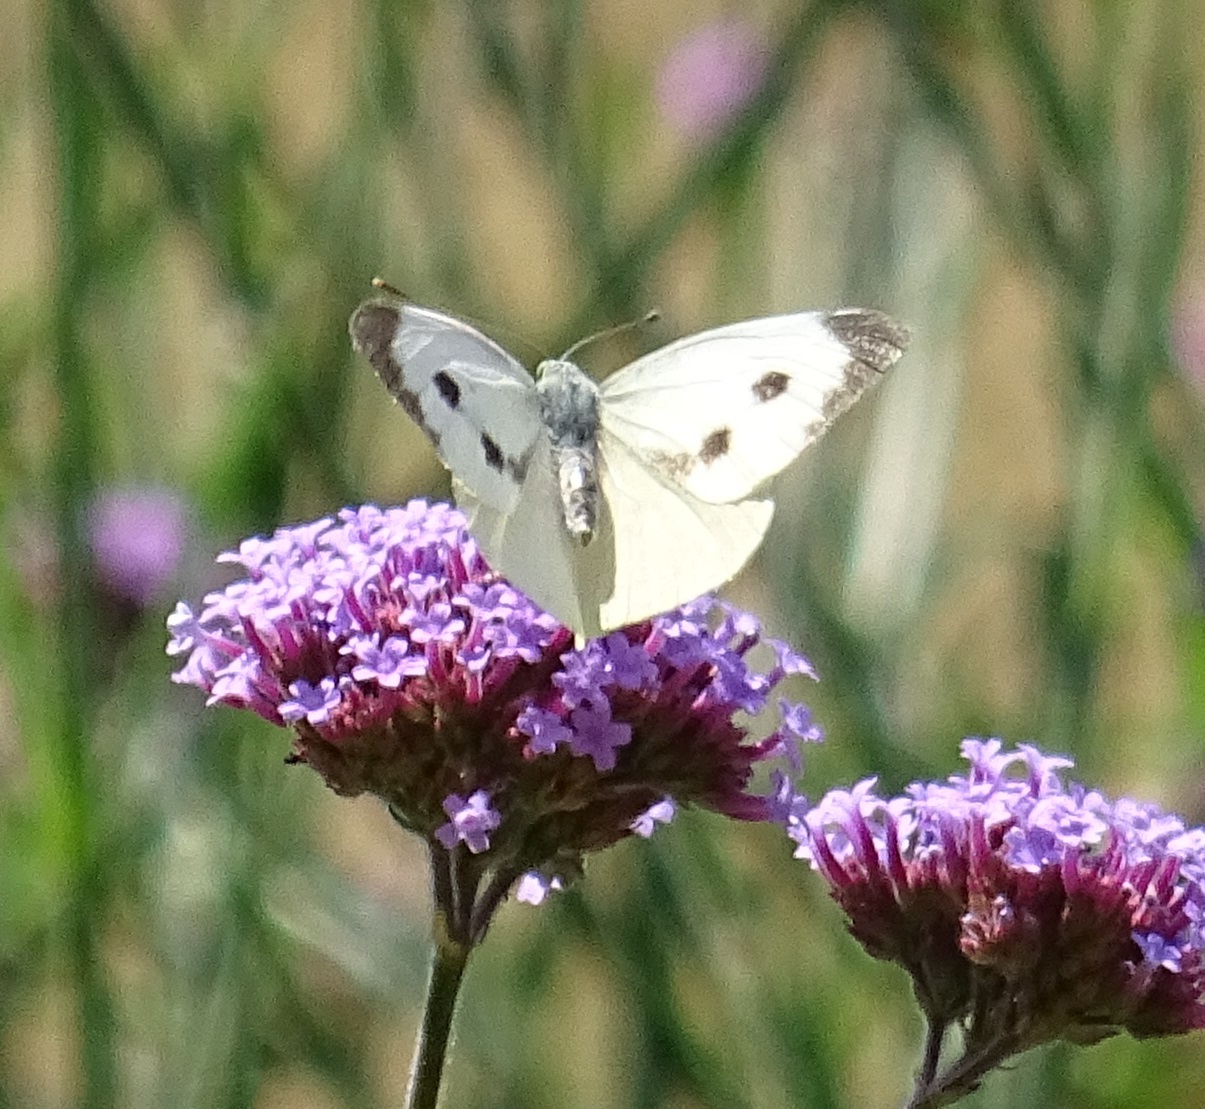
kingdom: Animalia
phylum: Arthropoda
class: Insecta
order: Lepidoptera
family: Pieridae
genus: Pieris
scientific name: Pieris brassicae
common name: Large white
